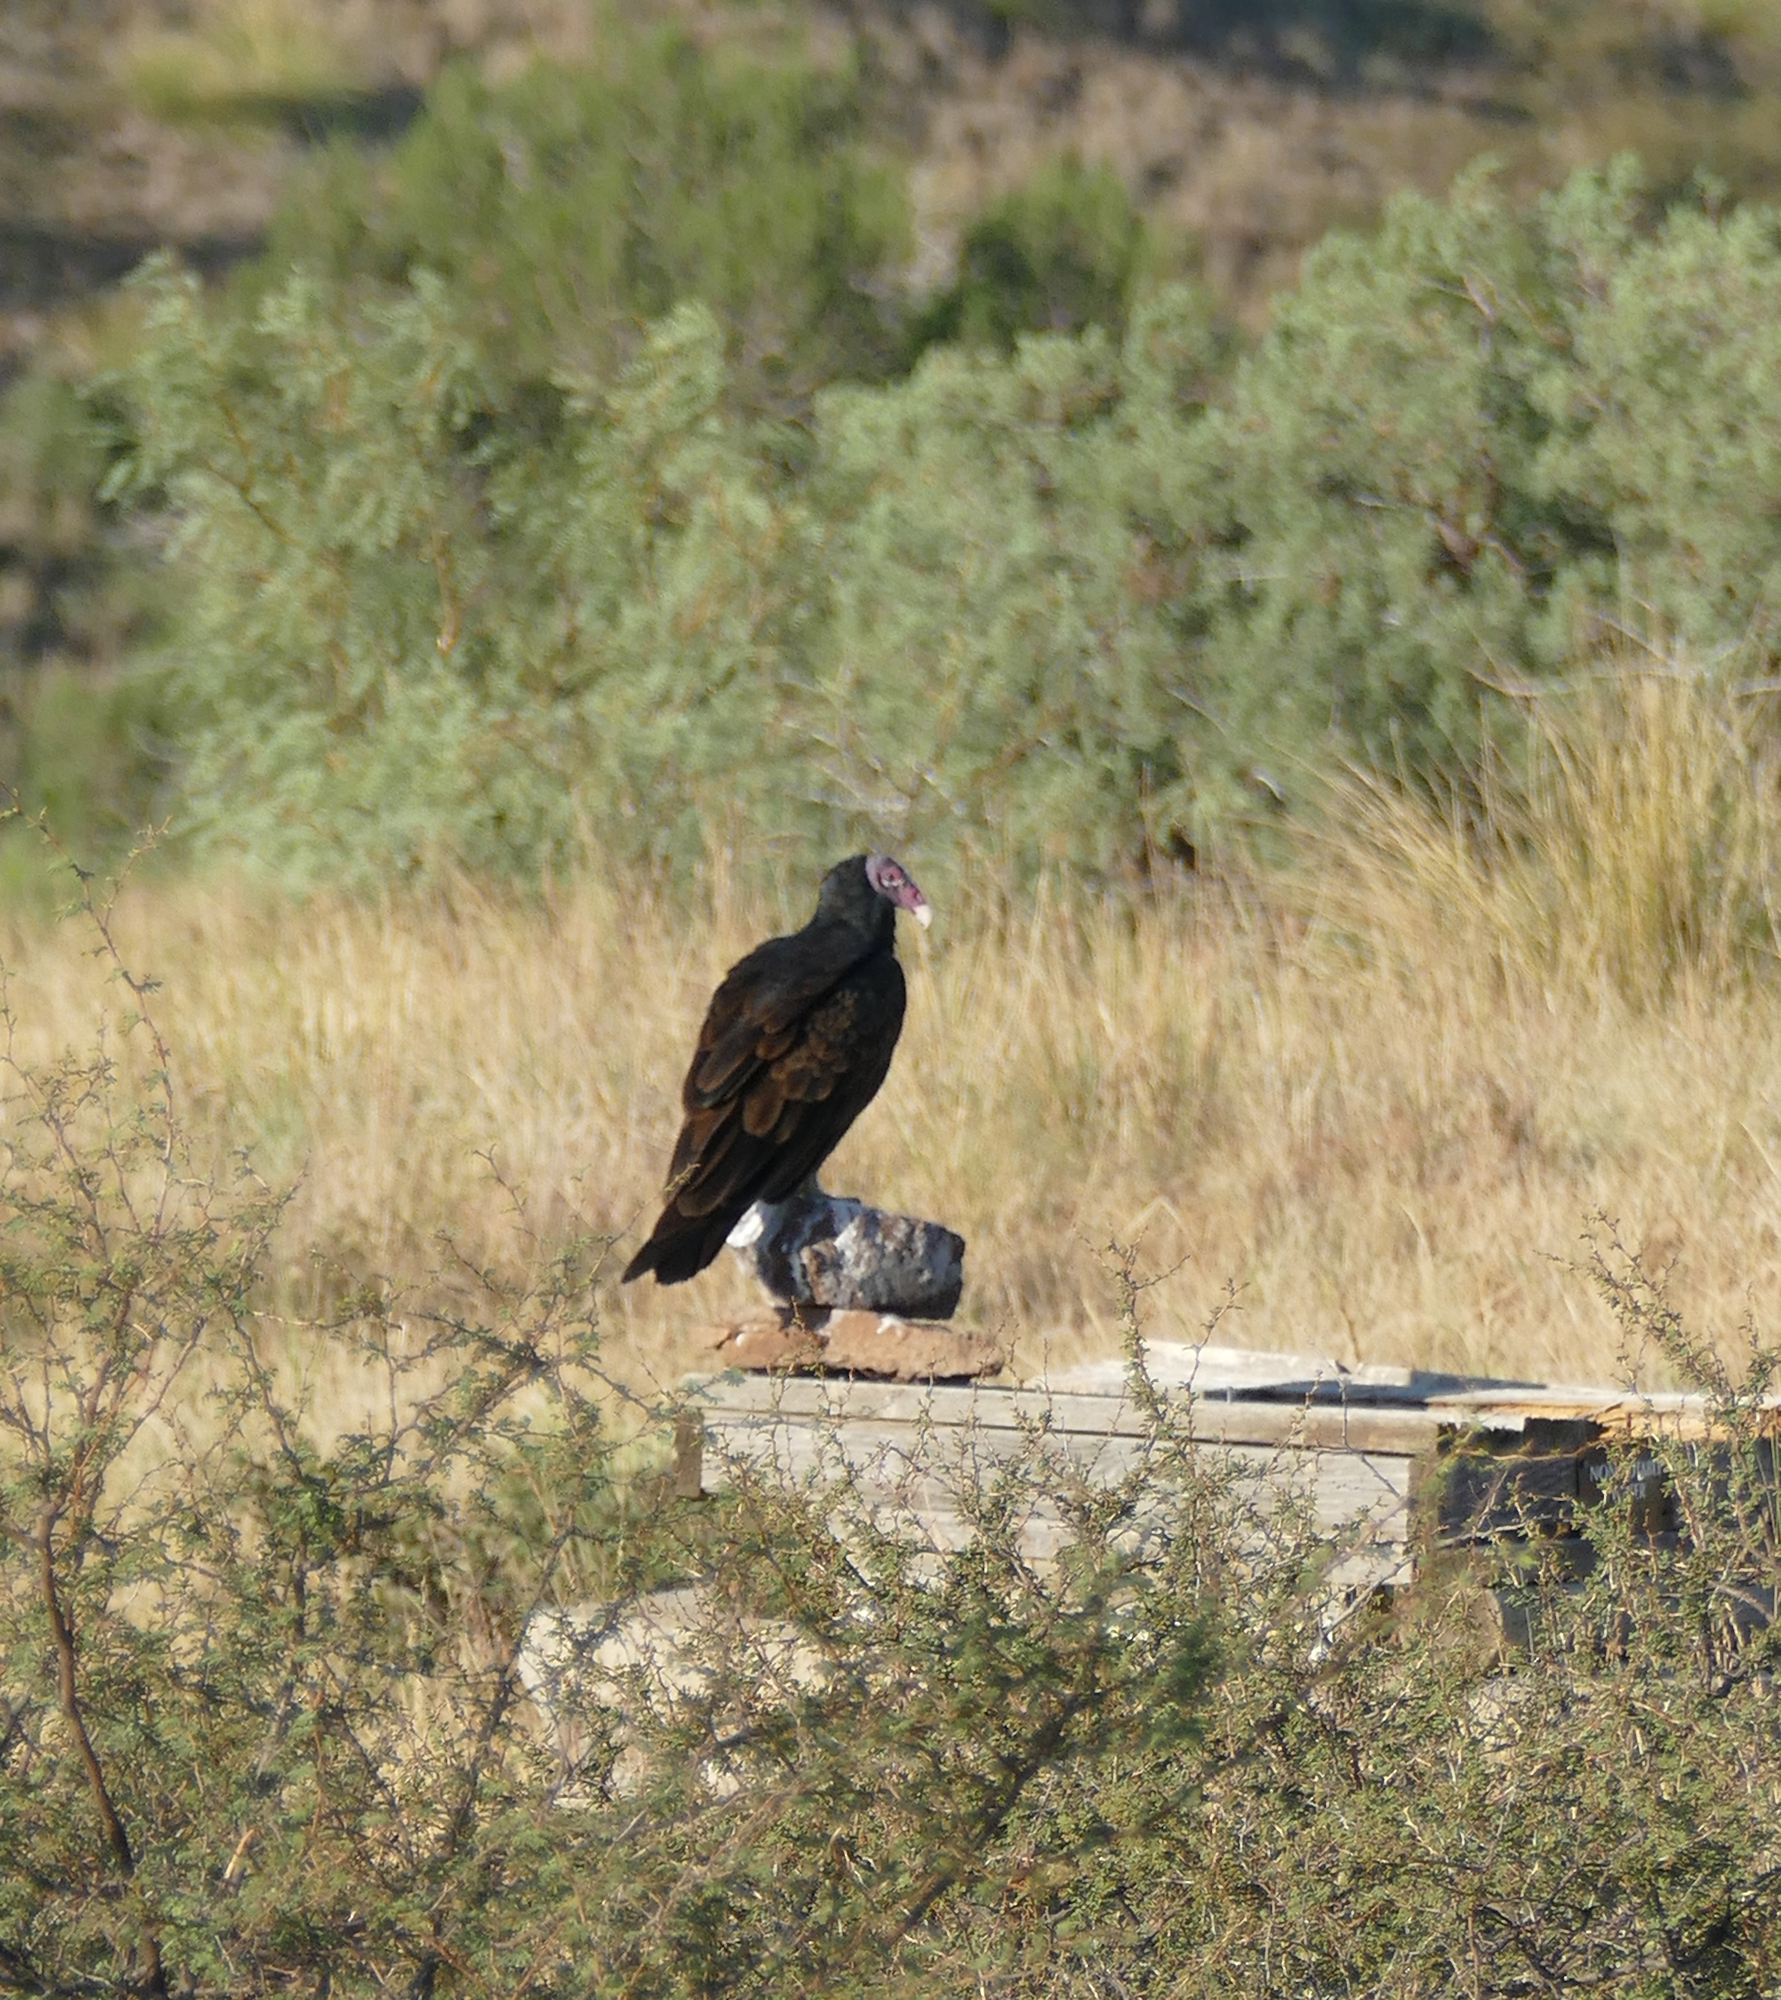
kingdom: Animalia
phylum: Chordata
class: Aves
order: Accipitriformes
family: Cathartidae
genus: Cathartes
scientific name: Cathartes aura
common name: Turkey vulture
